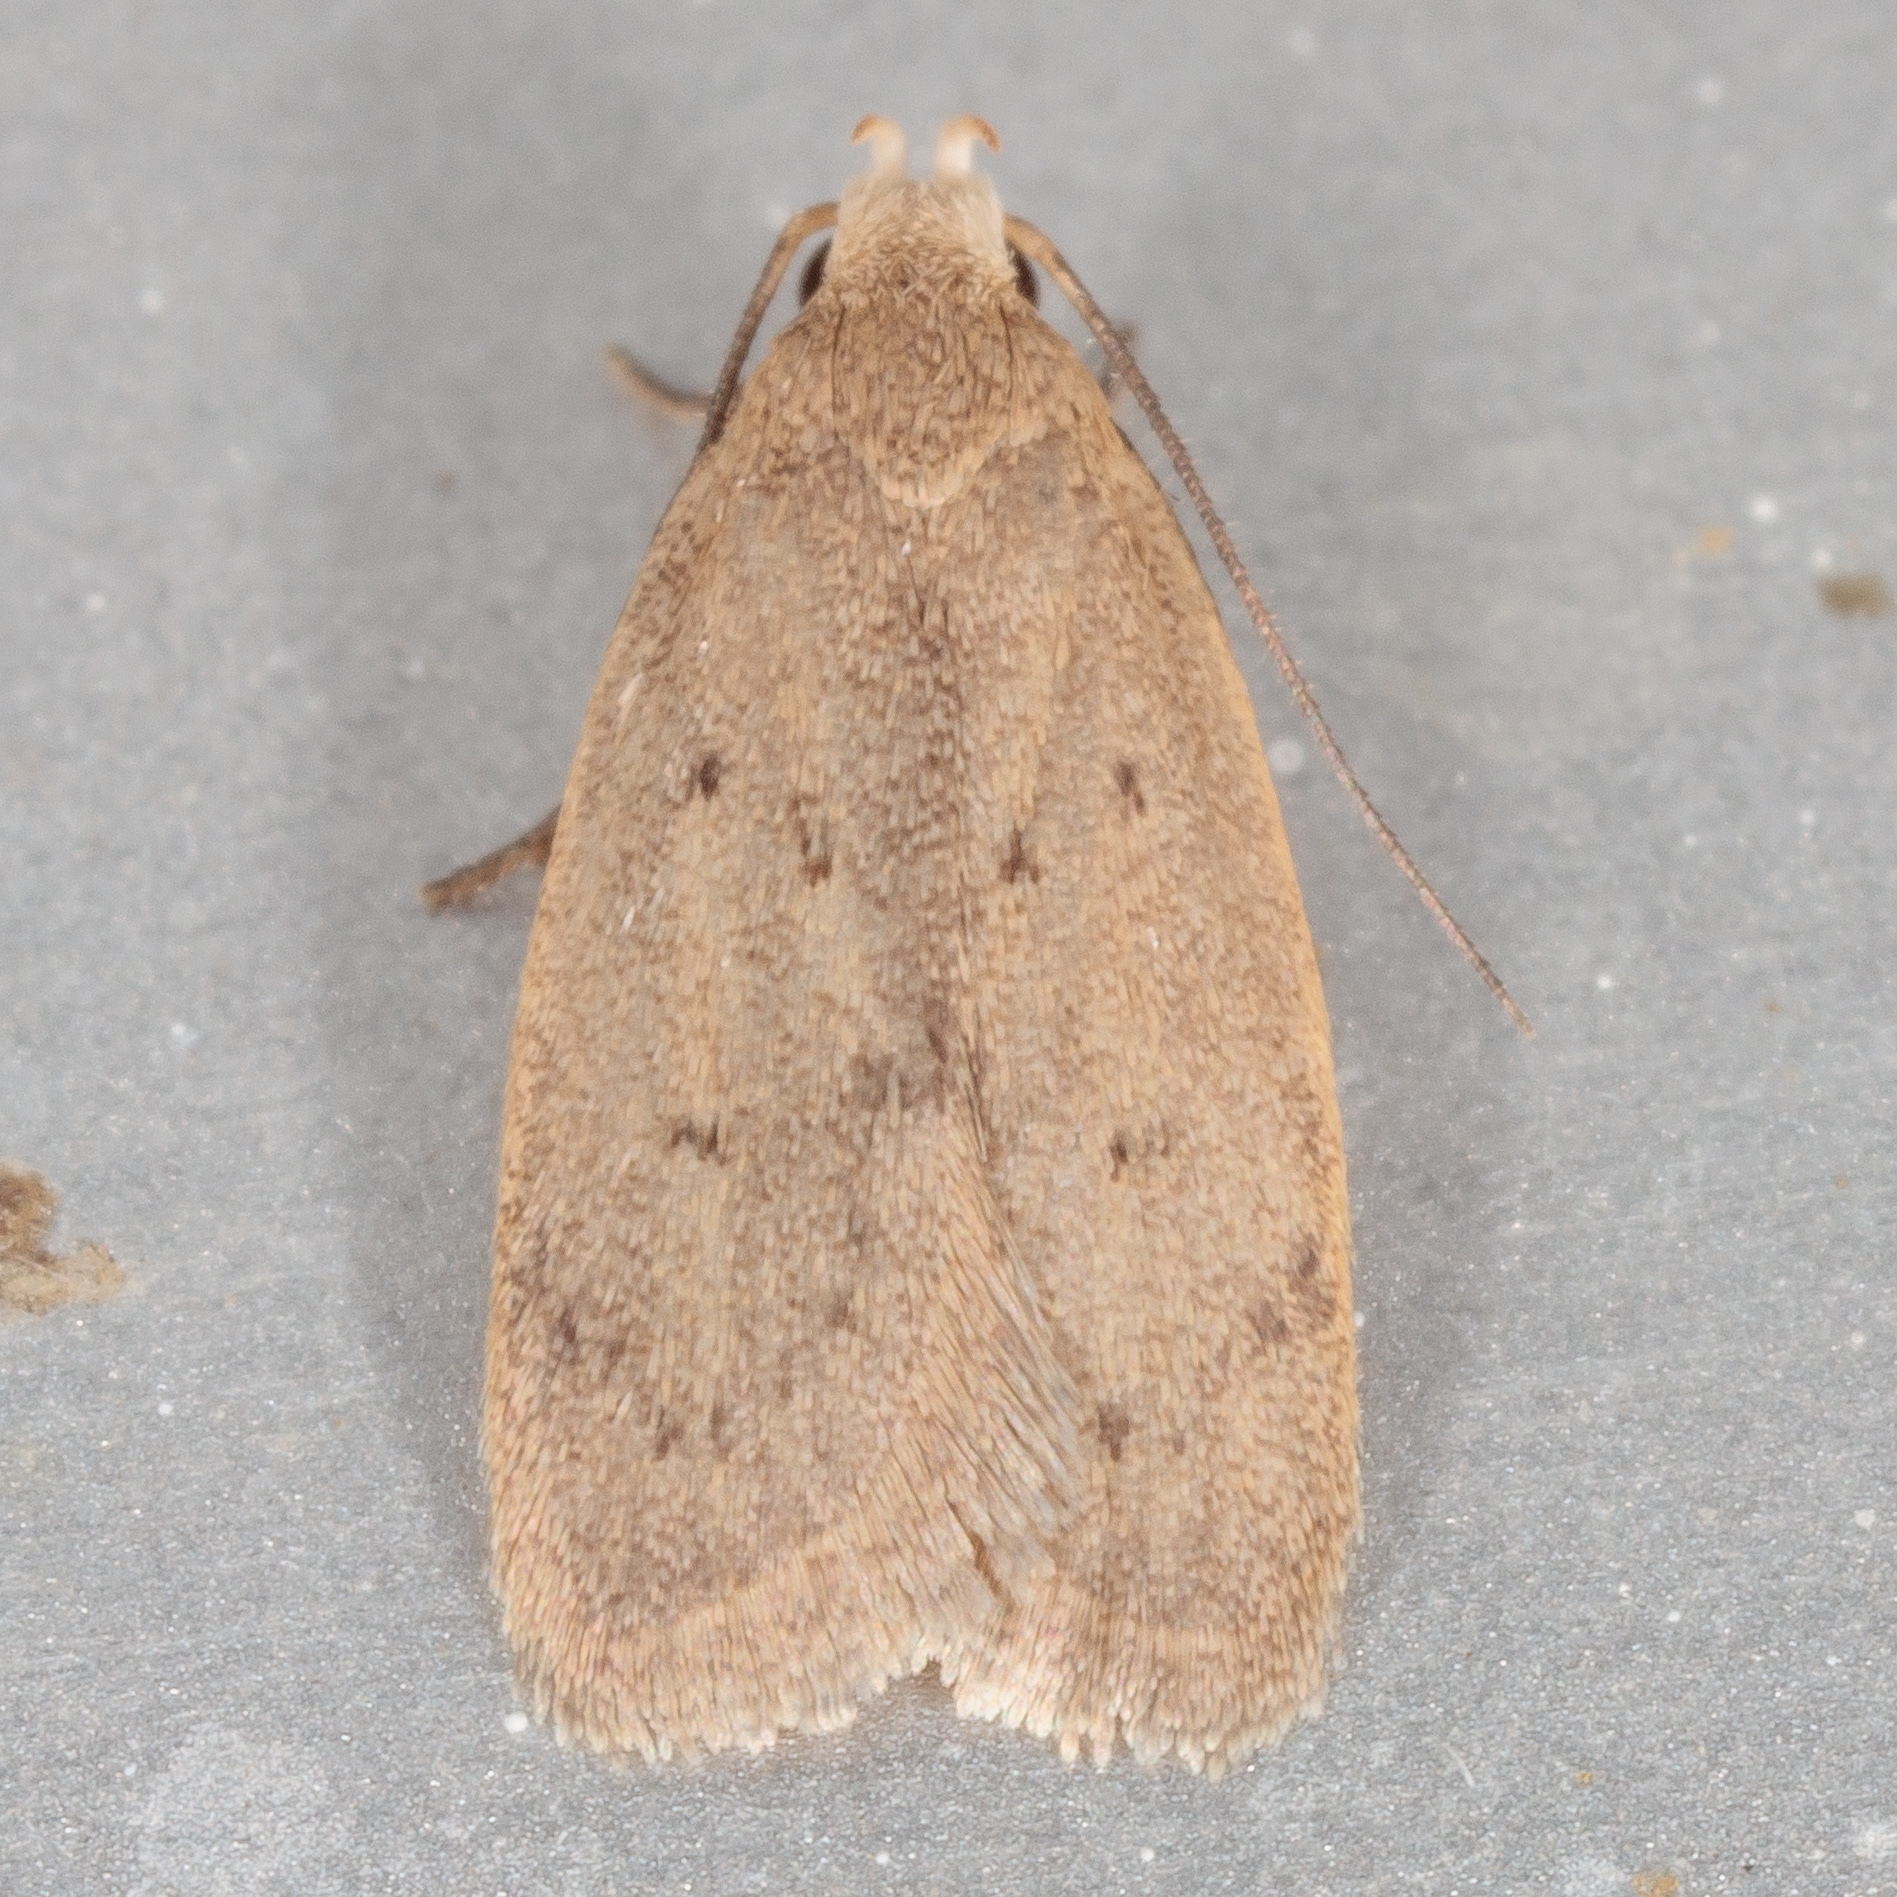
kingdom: Animalia
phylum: Arthropoda
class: Insecta
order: Lepidoptera
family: Oecophoridae
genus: Inga
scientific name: Inga obscuromaculella
